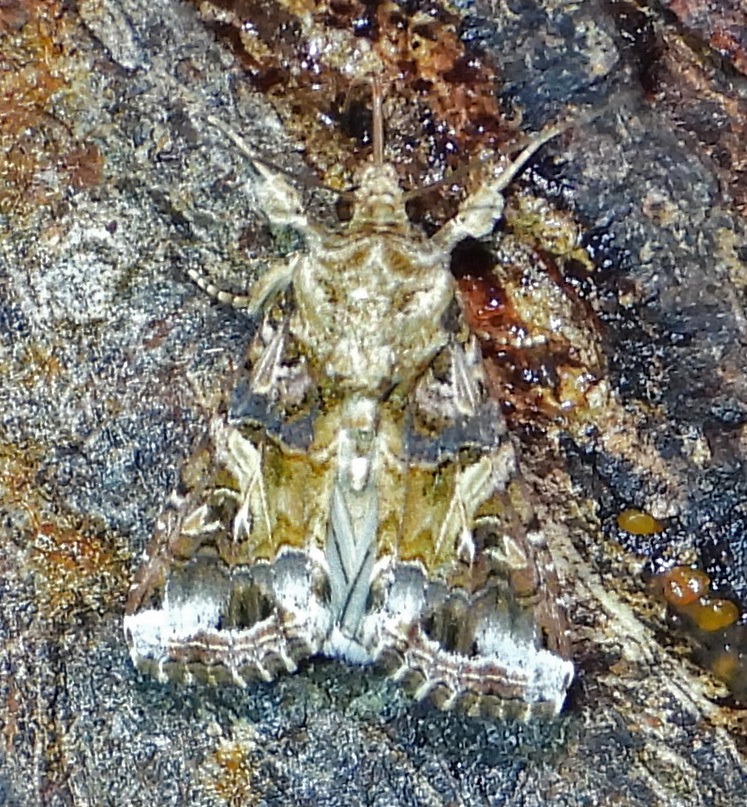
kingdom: Animalia
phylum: Arthropoda
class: Insecta
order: Lepidoptera
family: Noctuidae
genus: Spodoptera
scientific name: Spodoptera ornithogalli
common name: Yellow-striped armyworm
